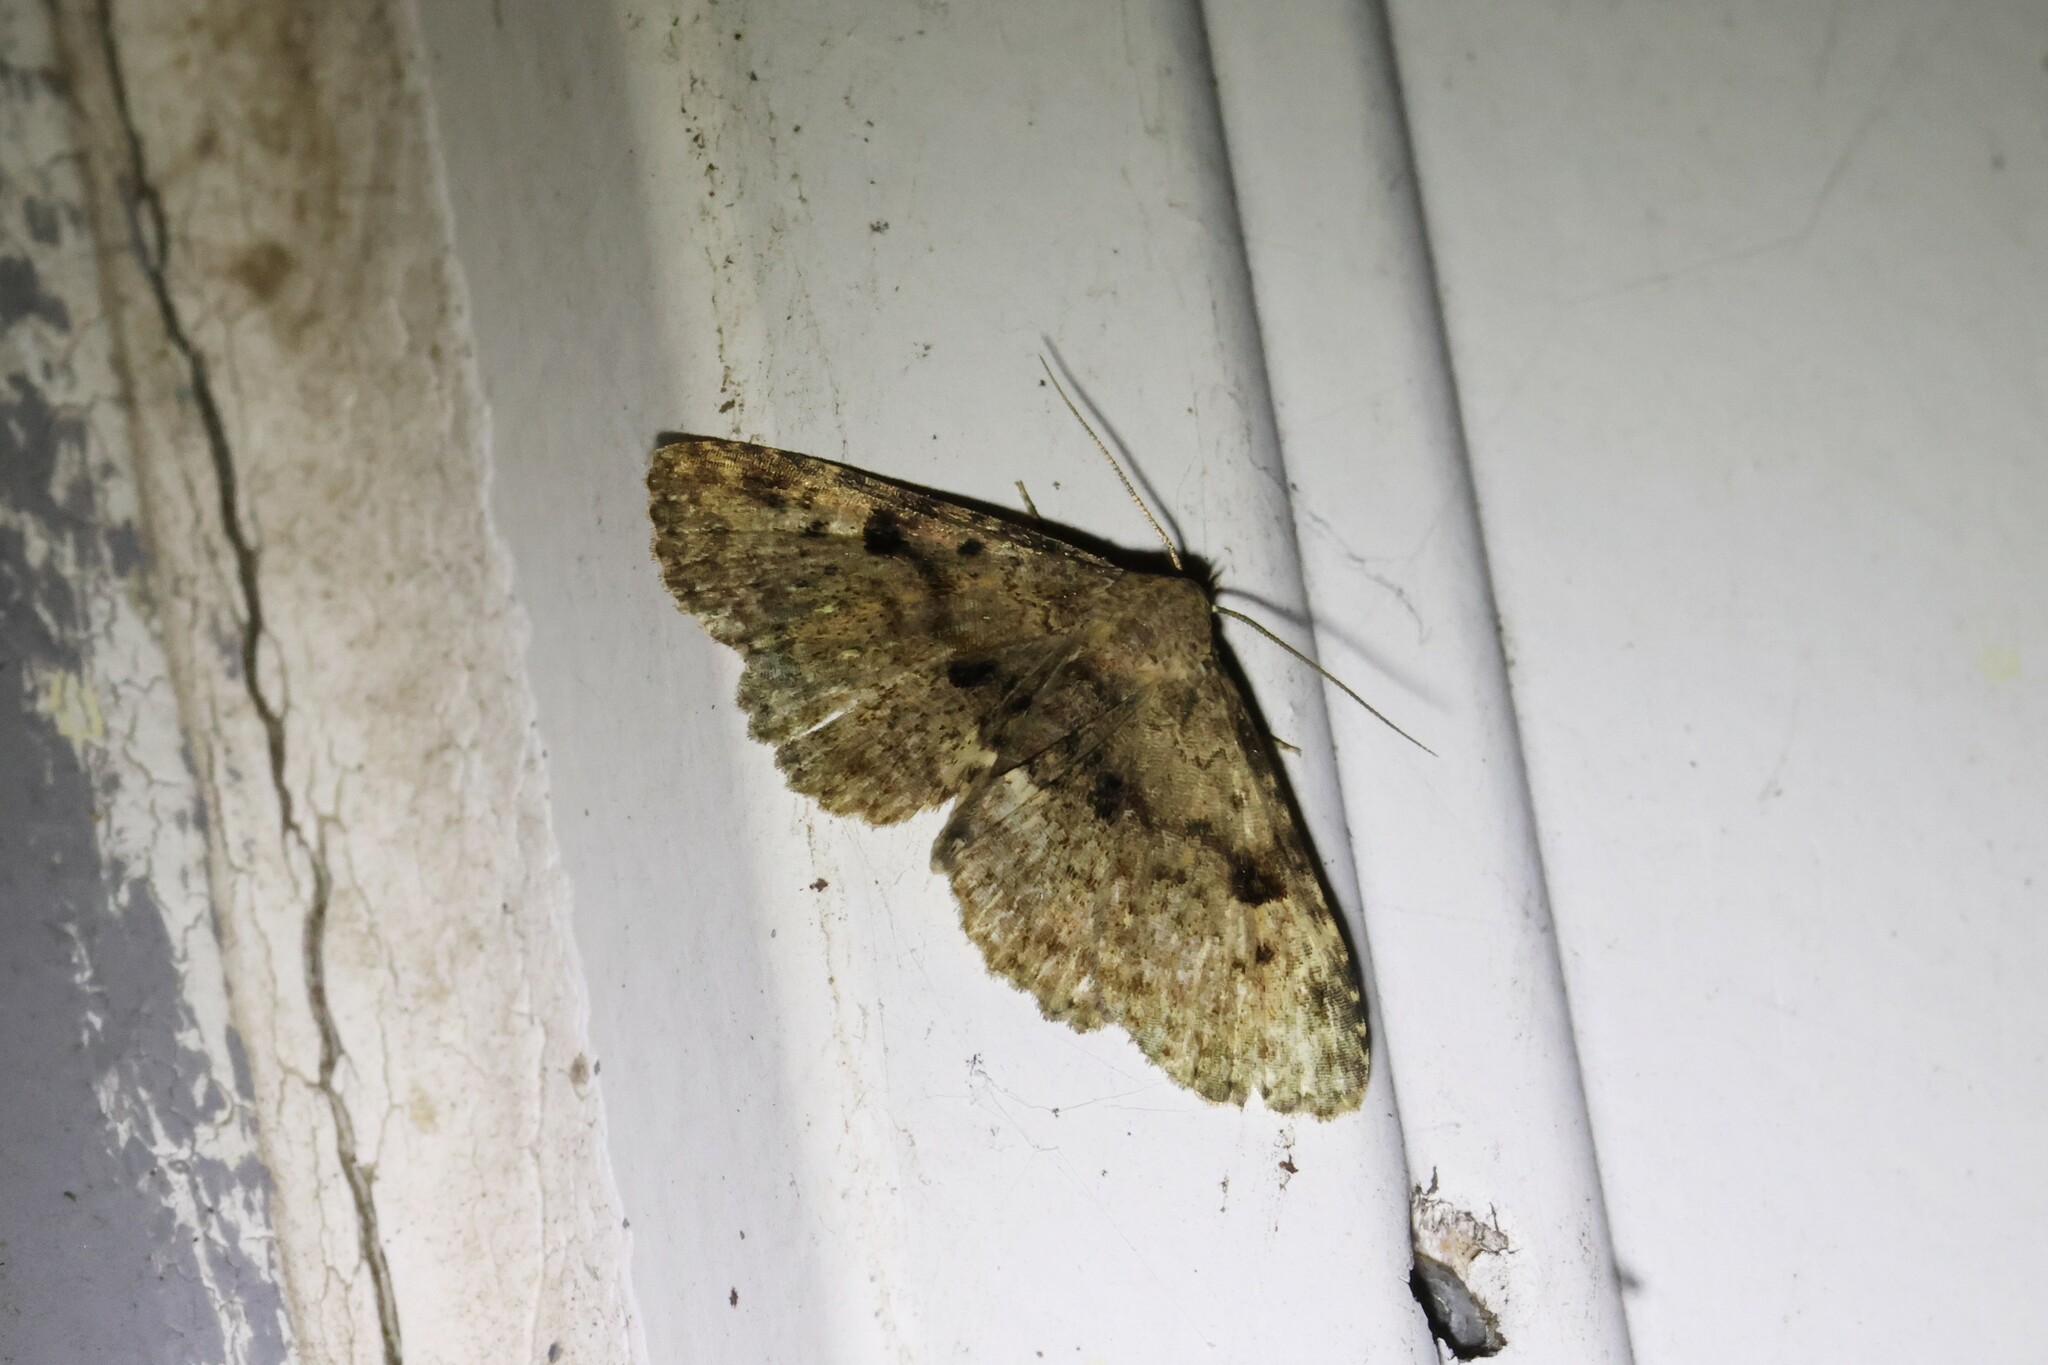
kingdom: Animalia
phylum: Arthropoda
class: Insecta
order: Lepidoptera
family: Erebidae
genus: Metalectra
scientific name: Metalectra quadrisignata
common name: Four-spotted fungus moth
